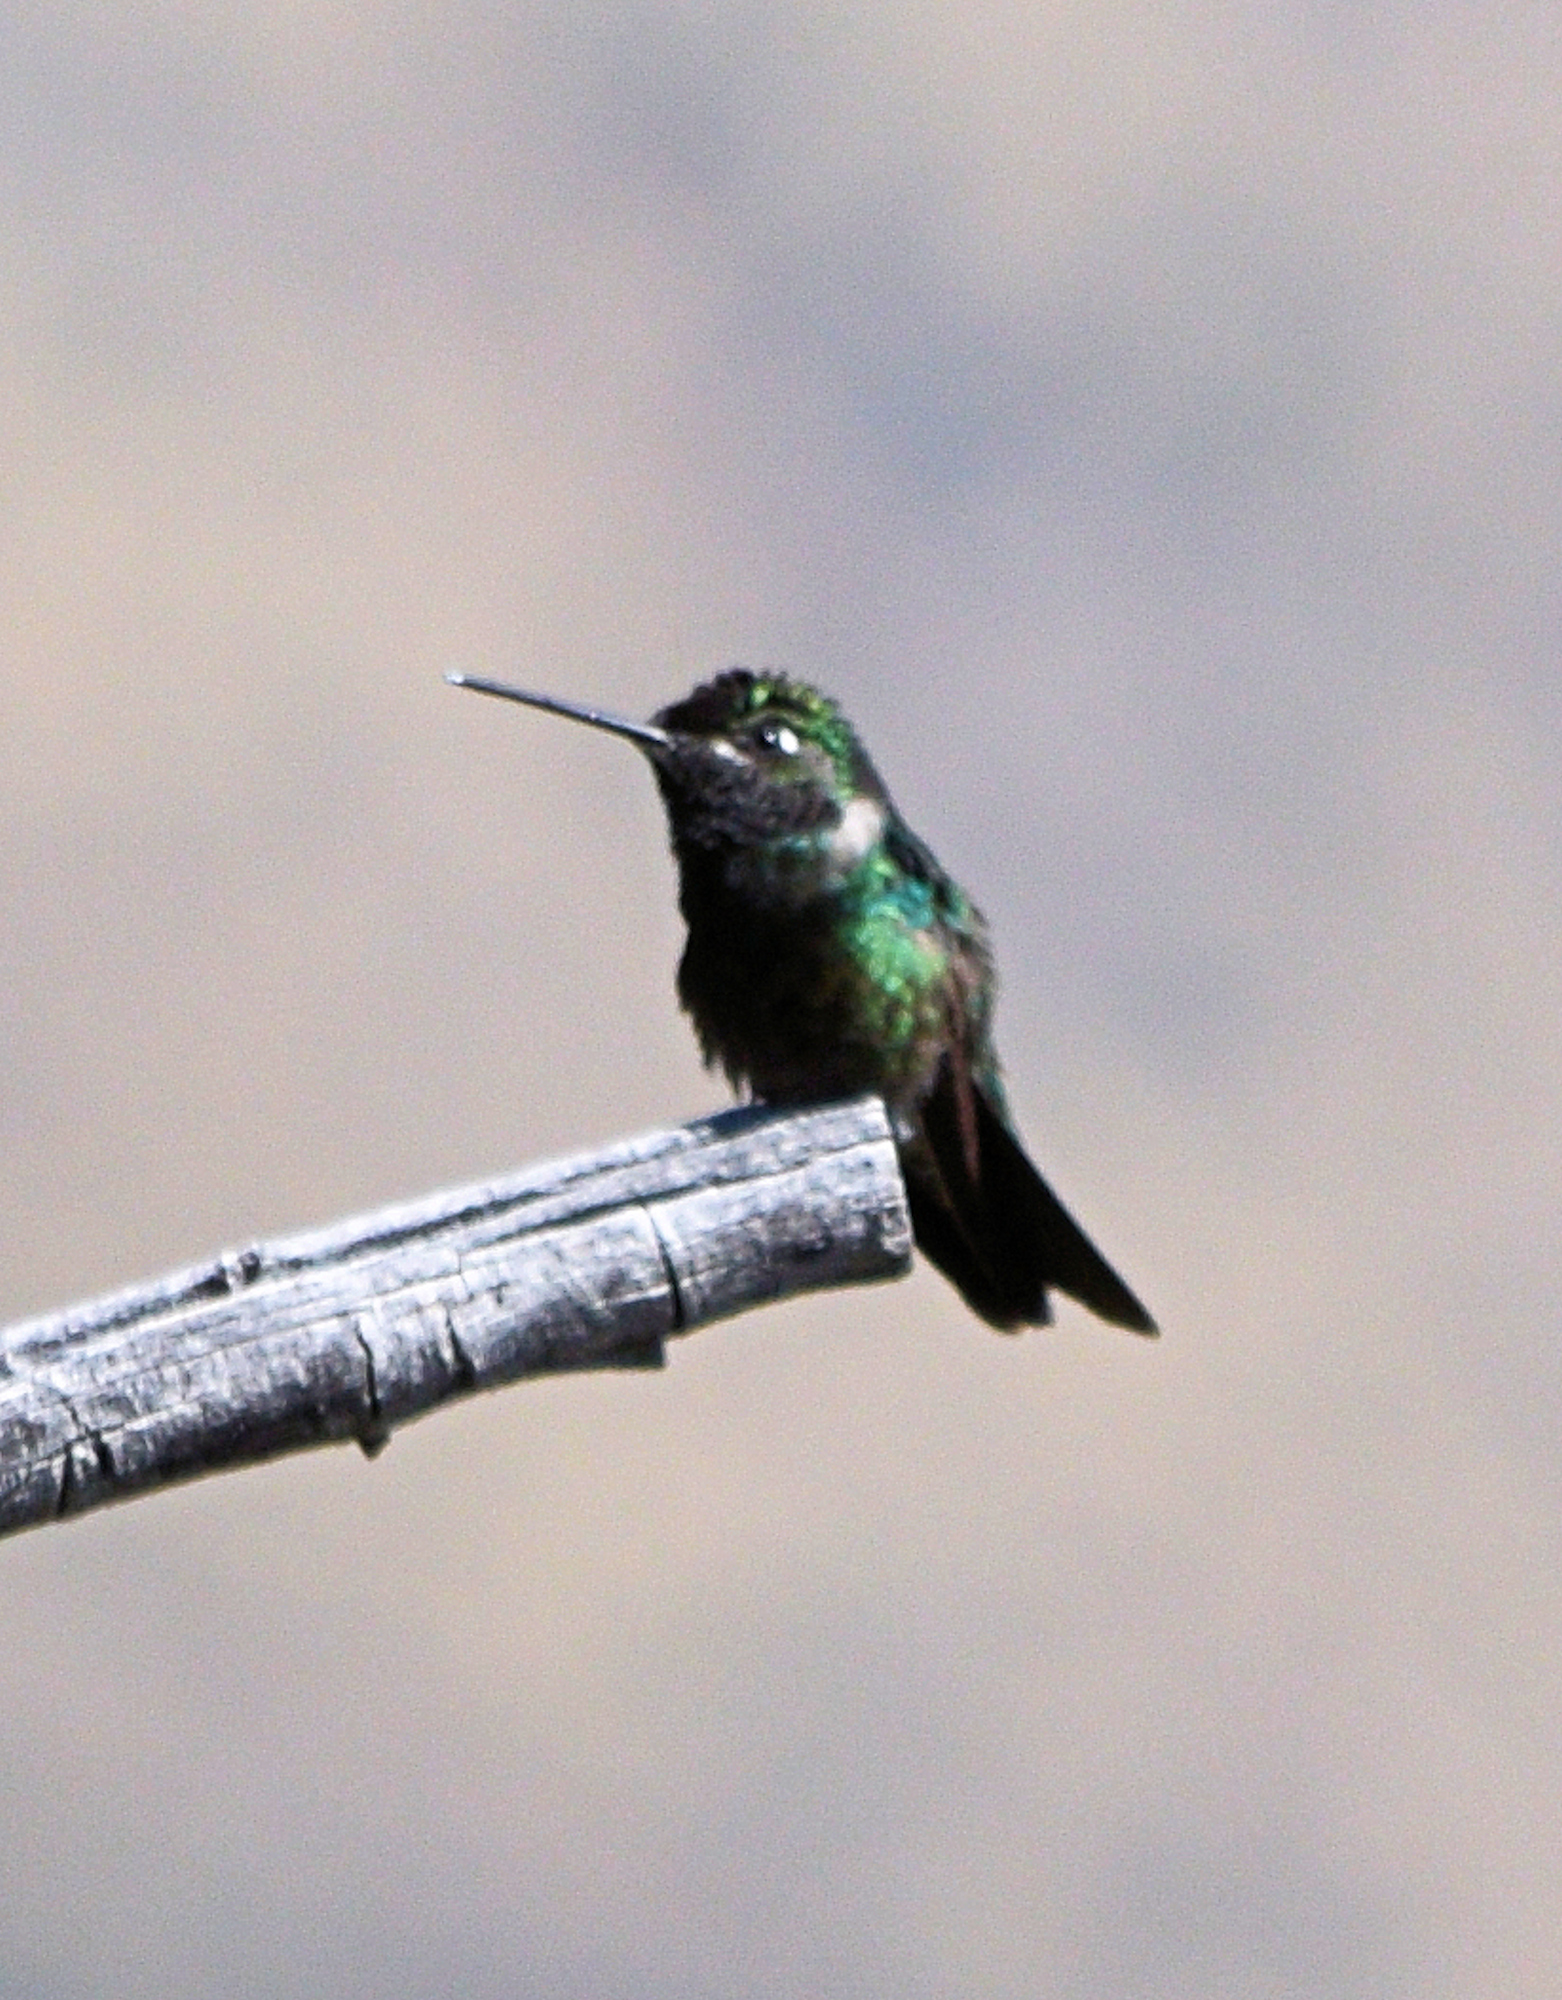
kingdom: Animalia
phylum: Chordata
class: Aves
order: Apodiformes
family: Trochilidae
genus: Eugenes
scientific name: Eugenes fulgens
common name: Magnificent hummingbird
